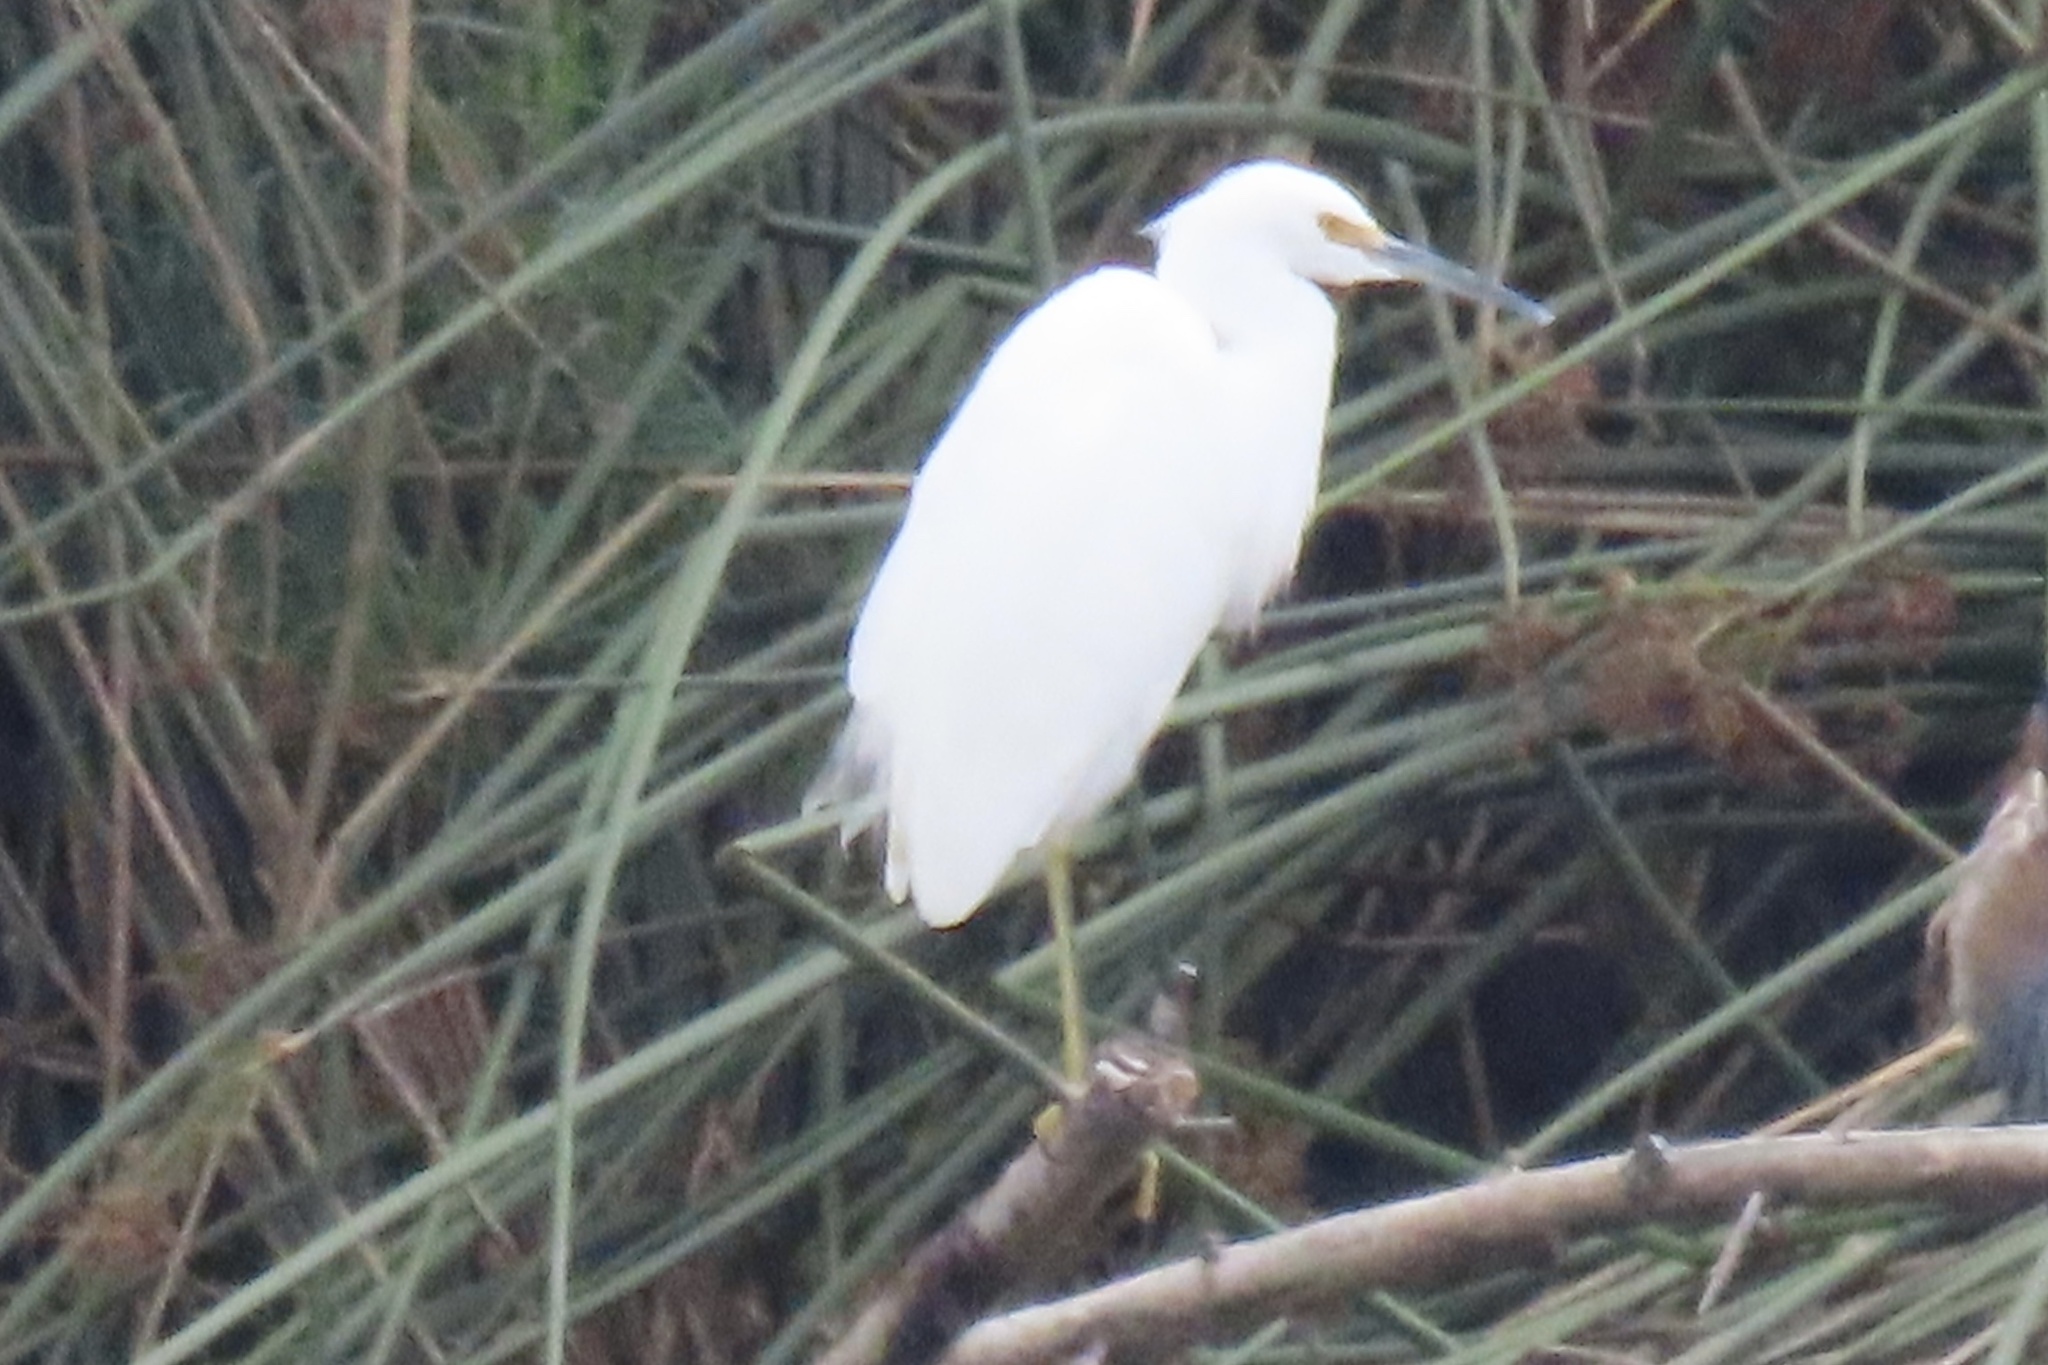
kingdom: Animalia
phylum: Chordata
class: Aves
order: Pelecaniformes
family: Ardeidae
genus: Egretta
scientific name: Egretta thula
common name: Snowy egret
